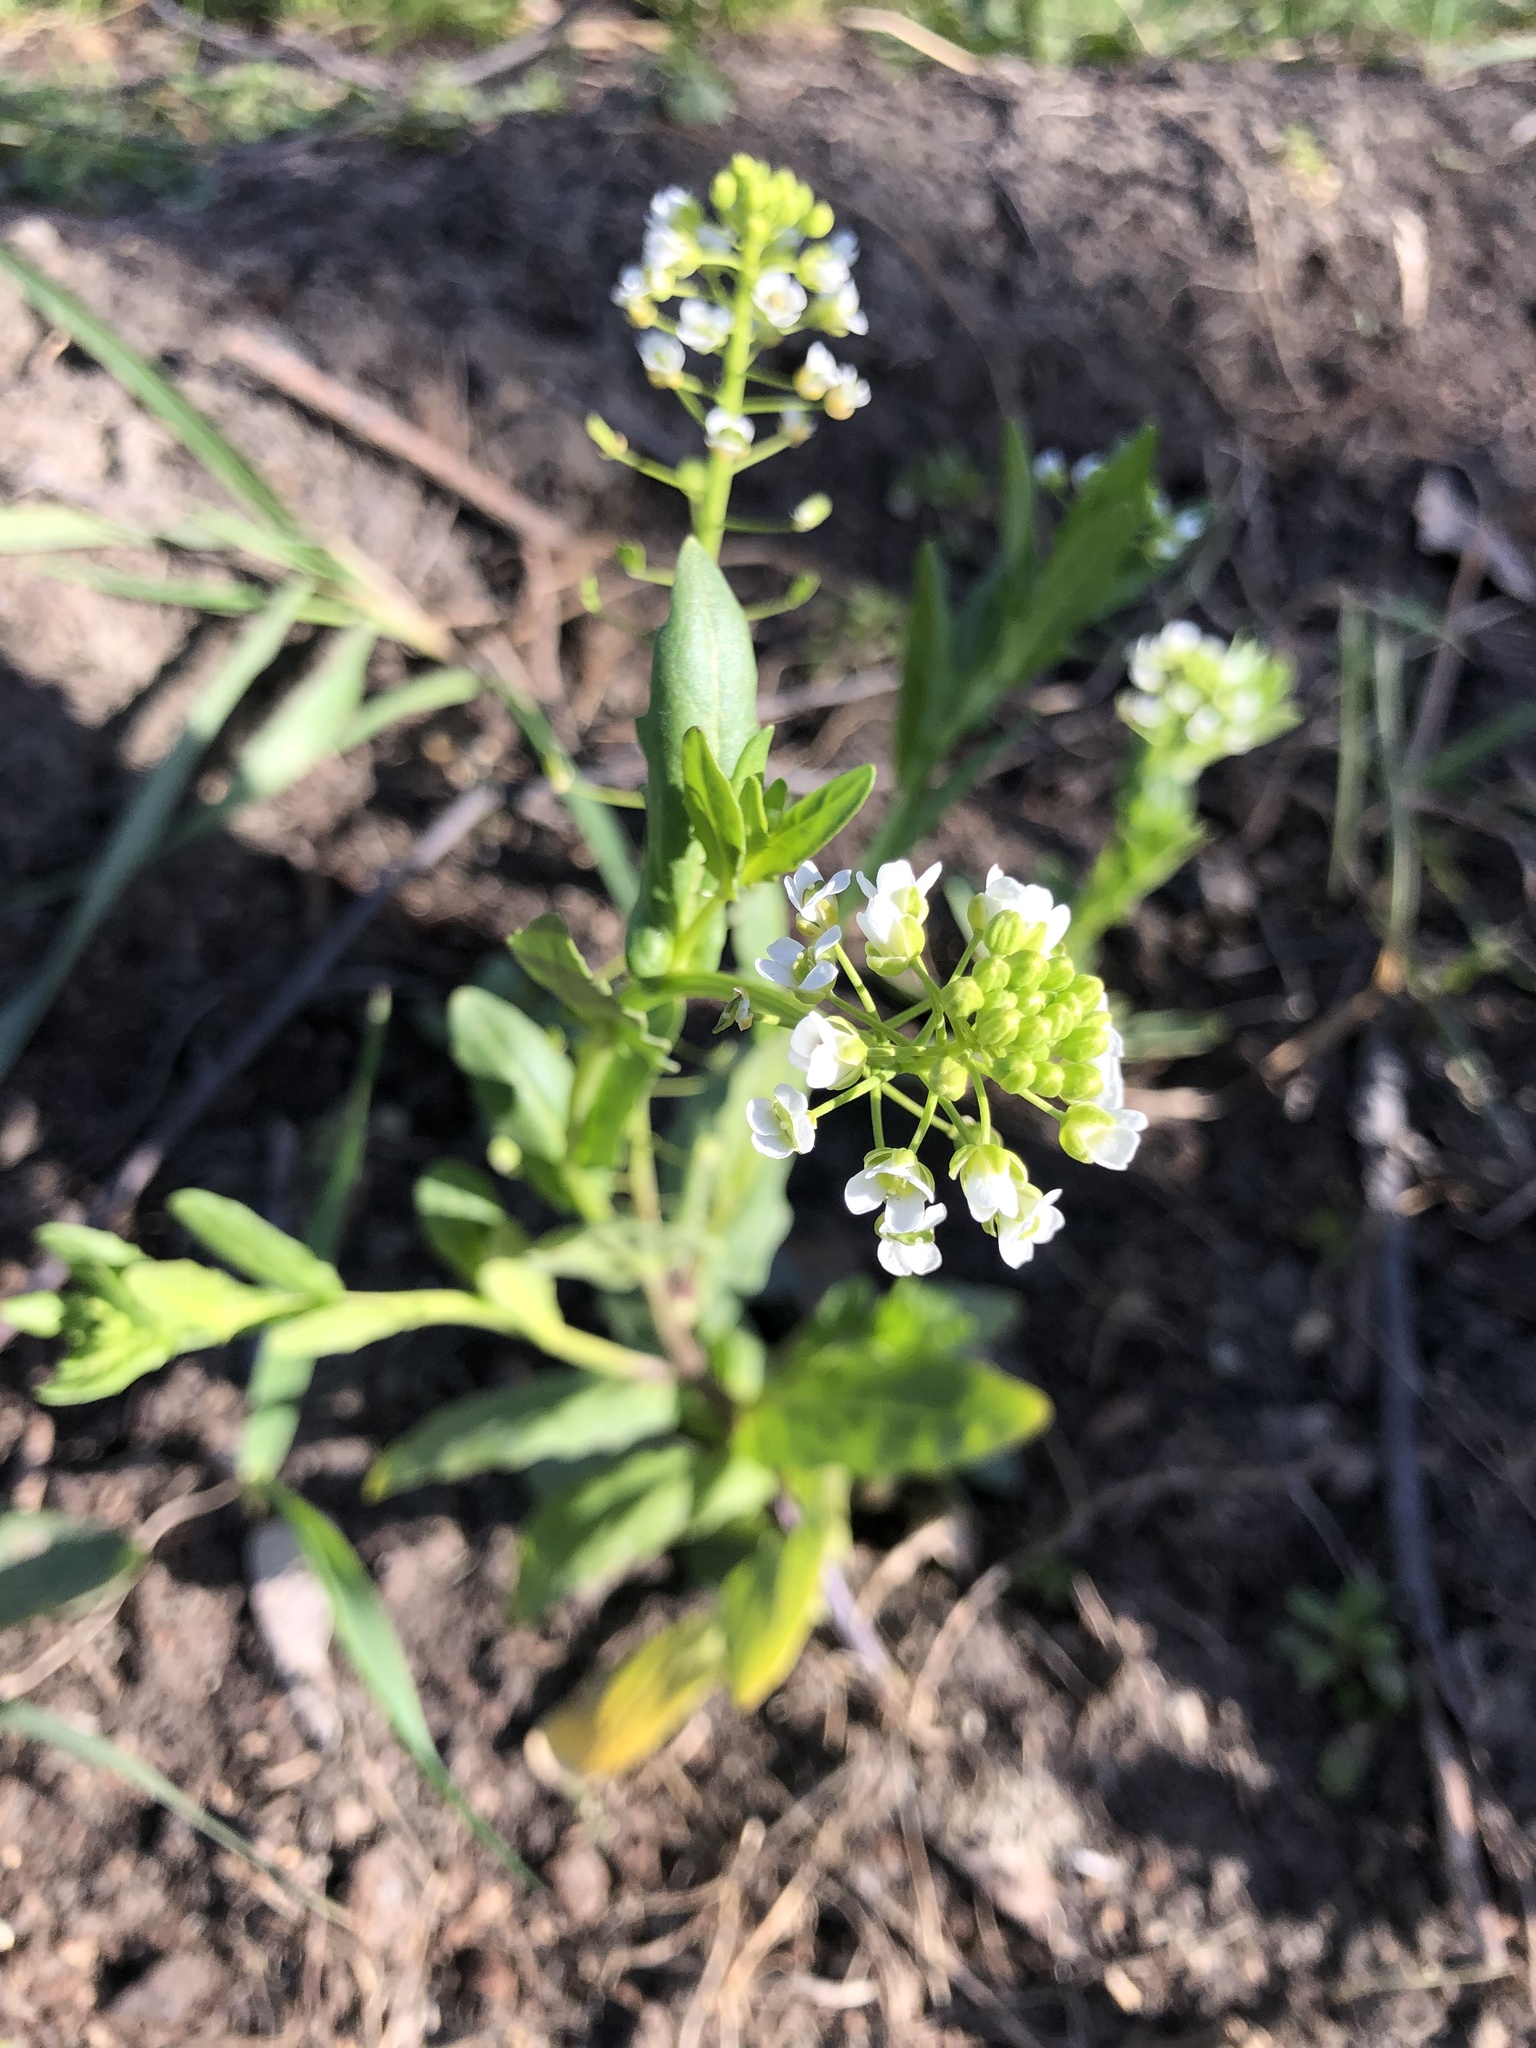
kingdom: Plantae
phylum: Tracheophyta
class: Magnoliopsida
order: Brassicales
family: Brassicaceae
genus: Thlaspi
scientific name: Thlaspi arvense
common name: Field pennycress
